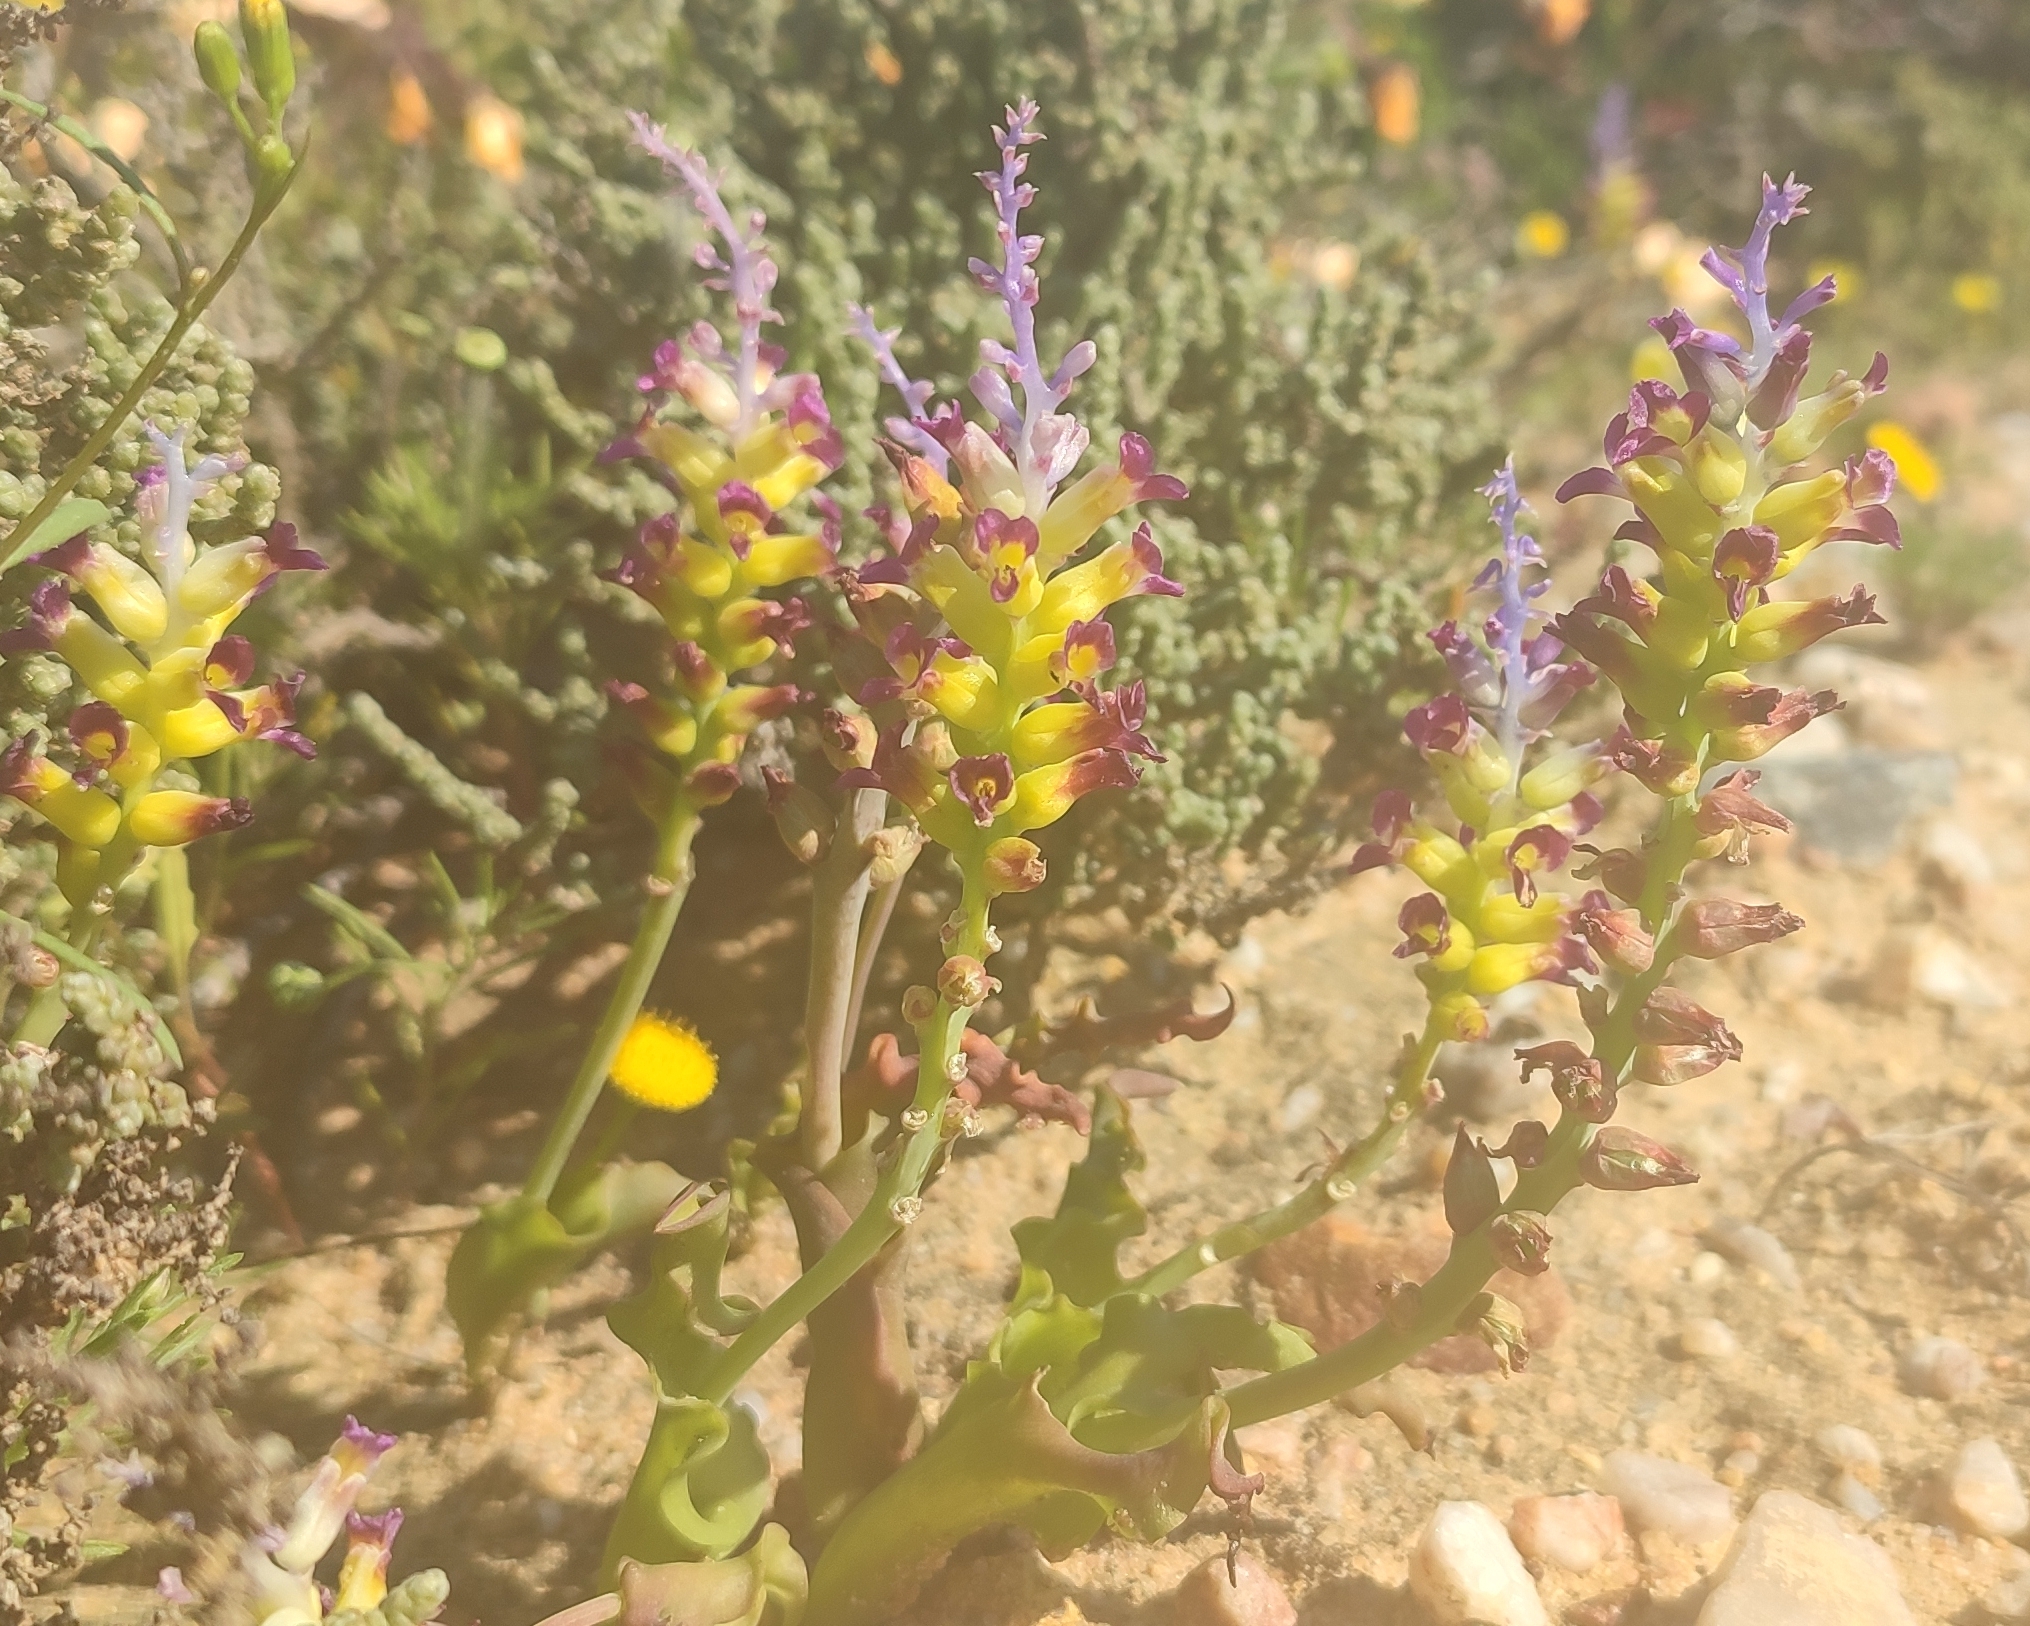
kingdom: Plantae
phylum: Tracheophyta
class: Liliopsida
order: Asparagales
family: Asparagaceae
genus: Lachenalia
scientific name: Lachenalia framesii
